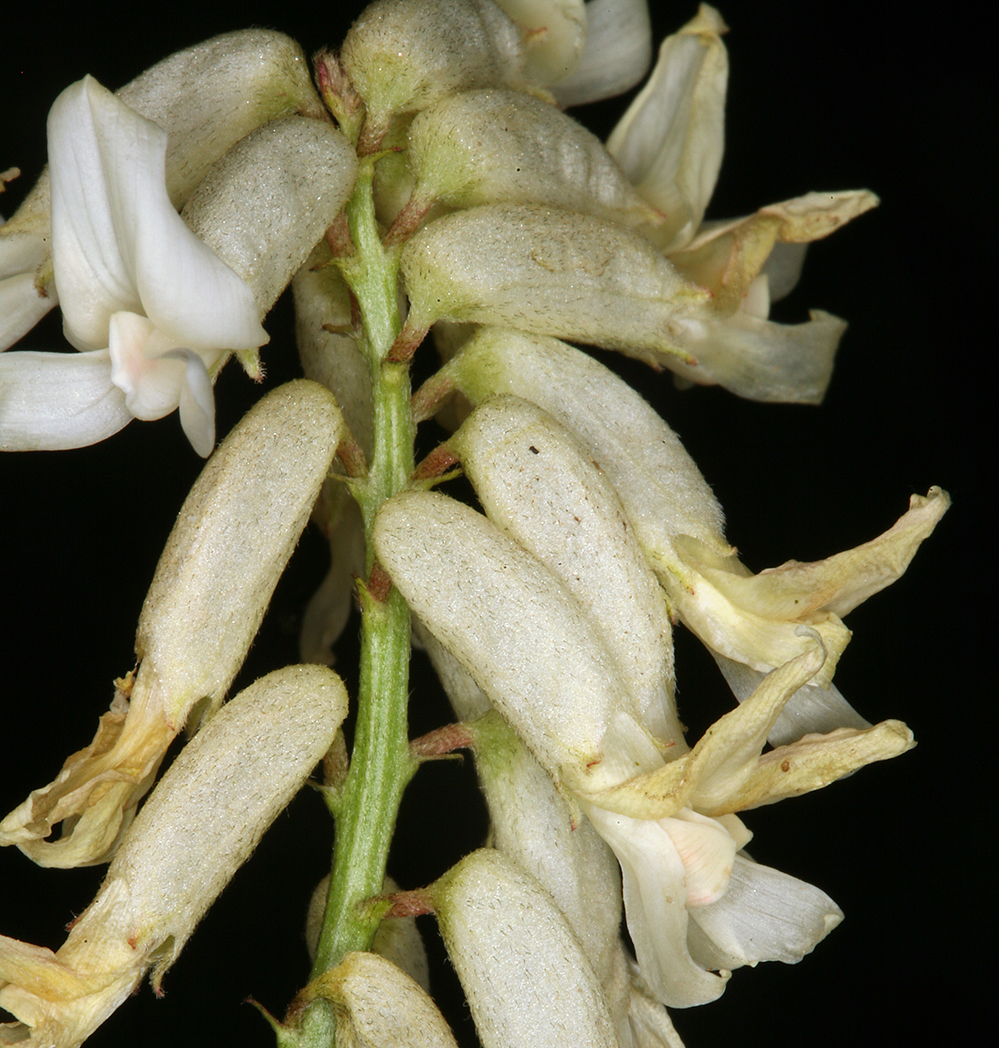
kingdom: Plantae
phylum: Tracheophyta
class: Magnoliopsida
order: Fabales
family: Fabaceae
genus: Astragalus
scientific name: Astragalus curvicarpus
